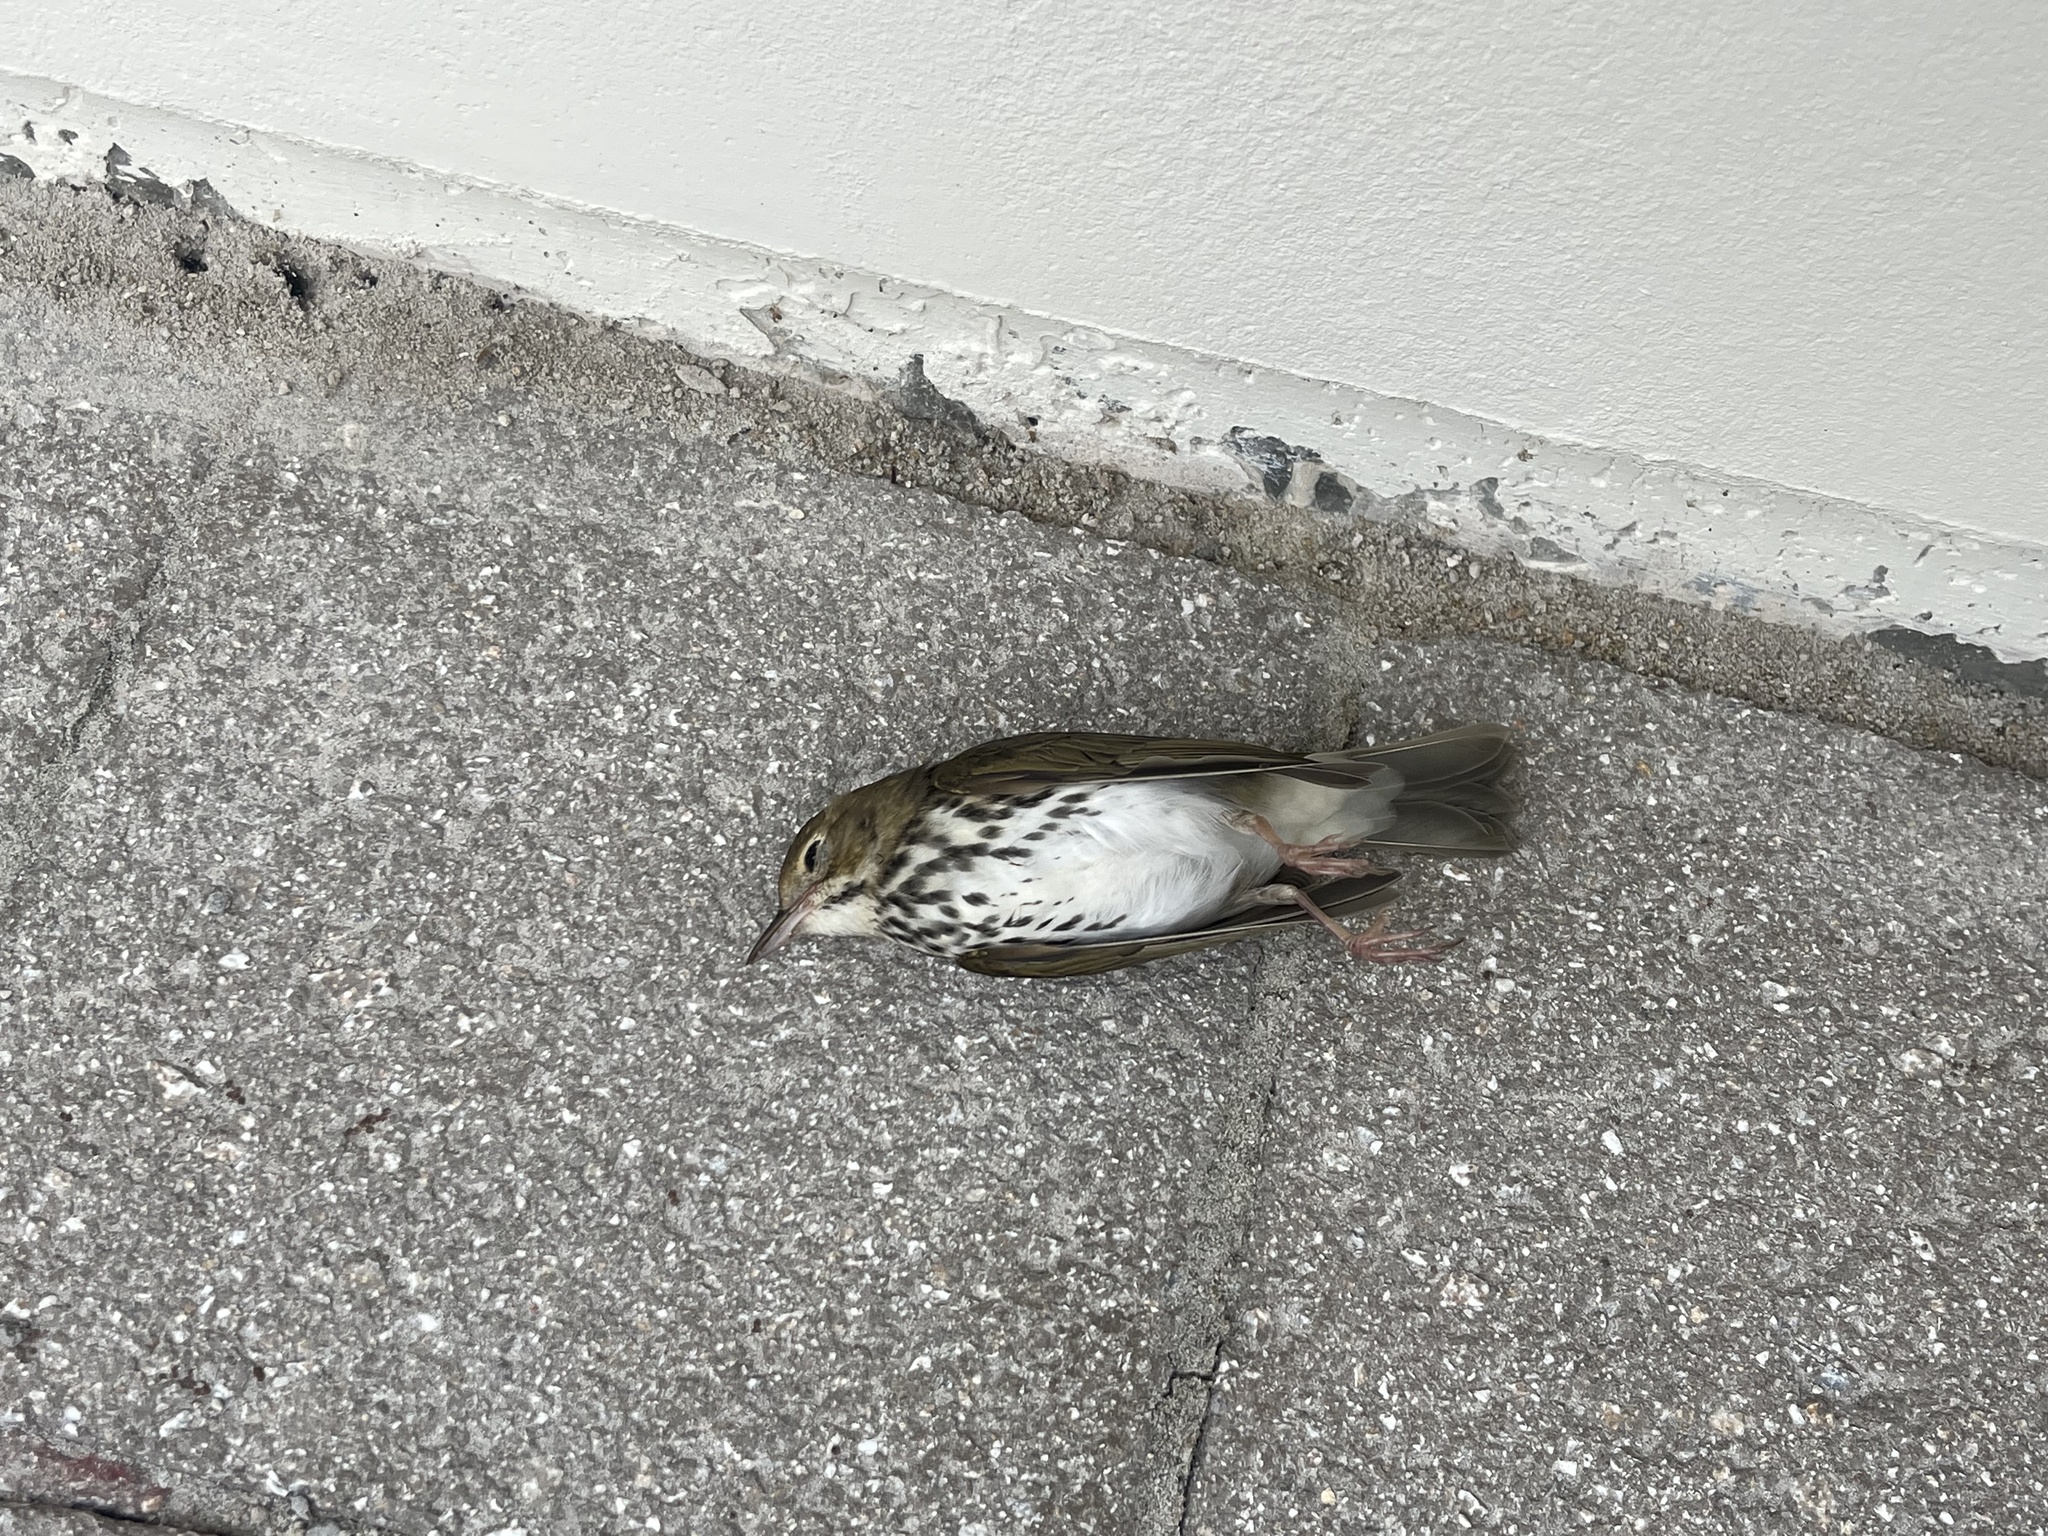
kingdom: Animalia
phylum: Chordata
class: Aves
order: Passeriformes
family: Parulidae
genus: Seiurus
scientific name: Seiurus aurocapilla
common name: Ovenbird
